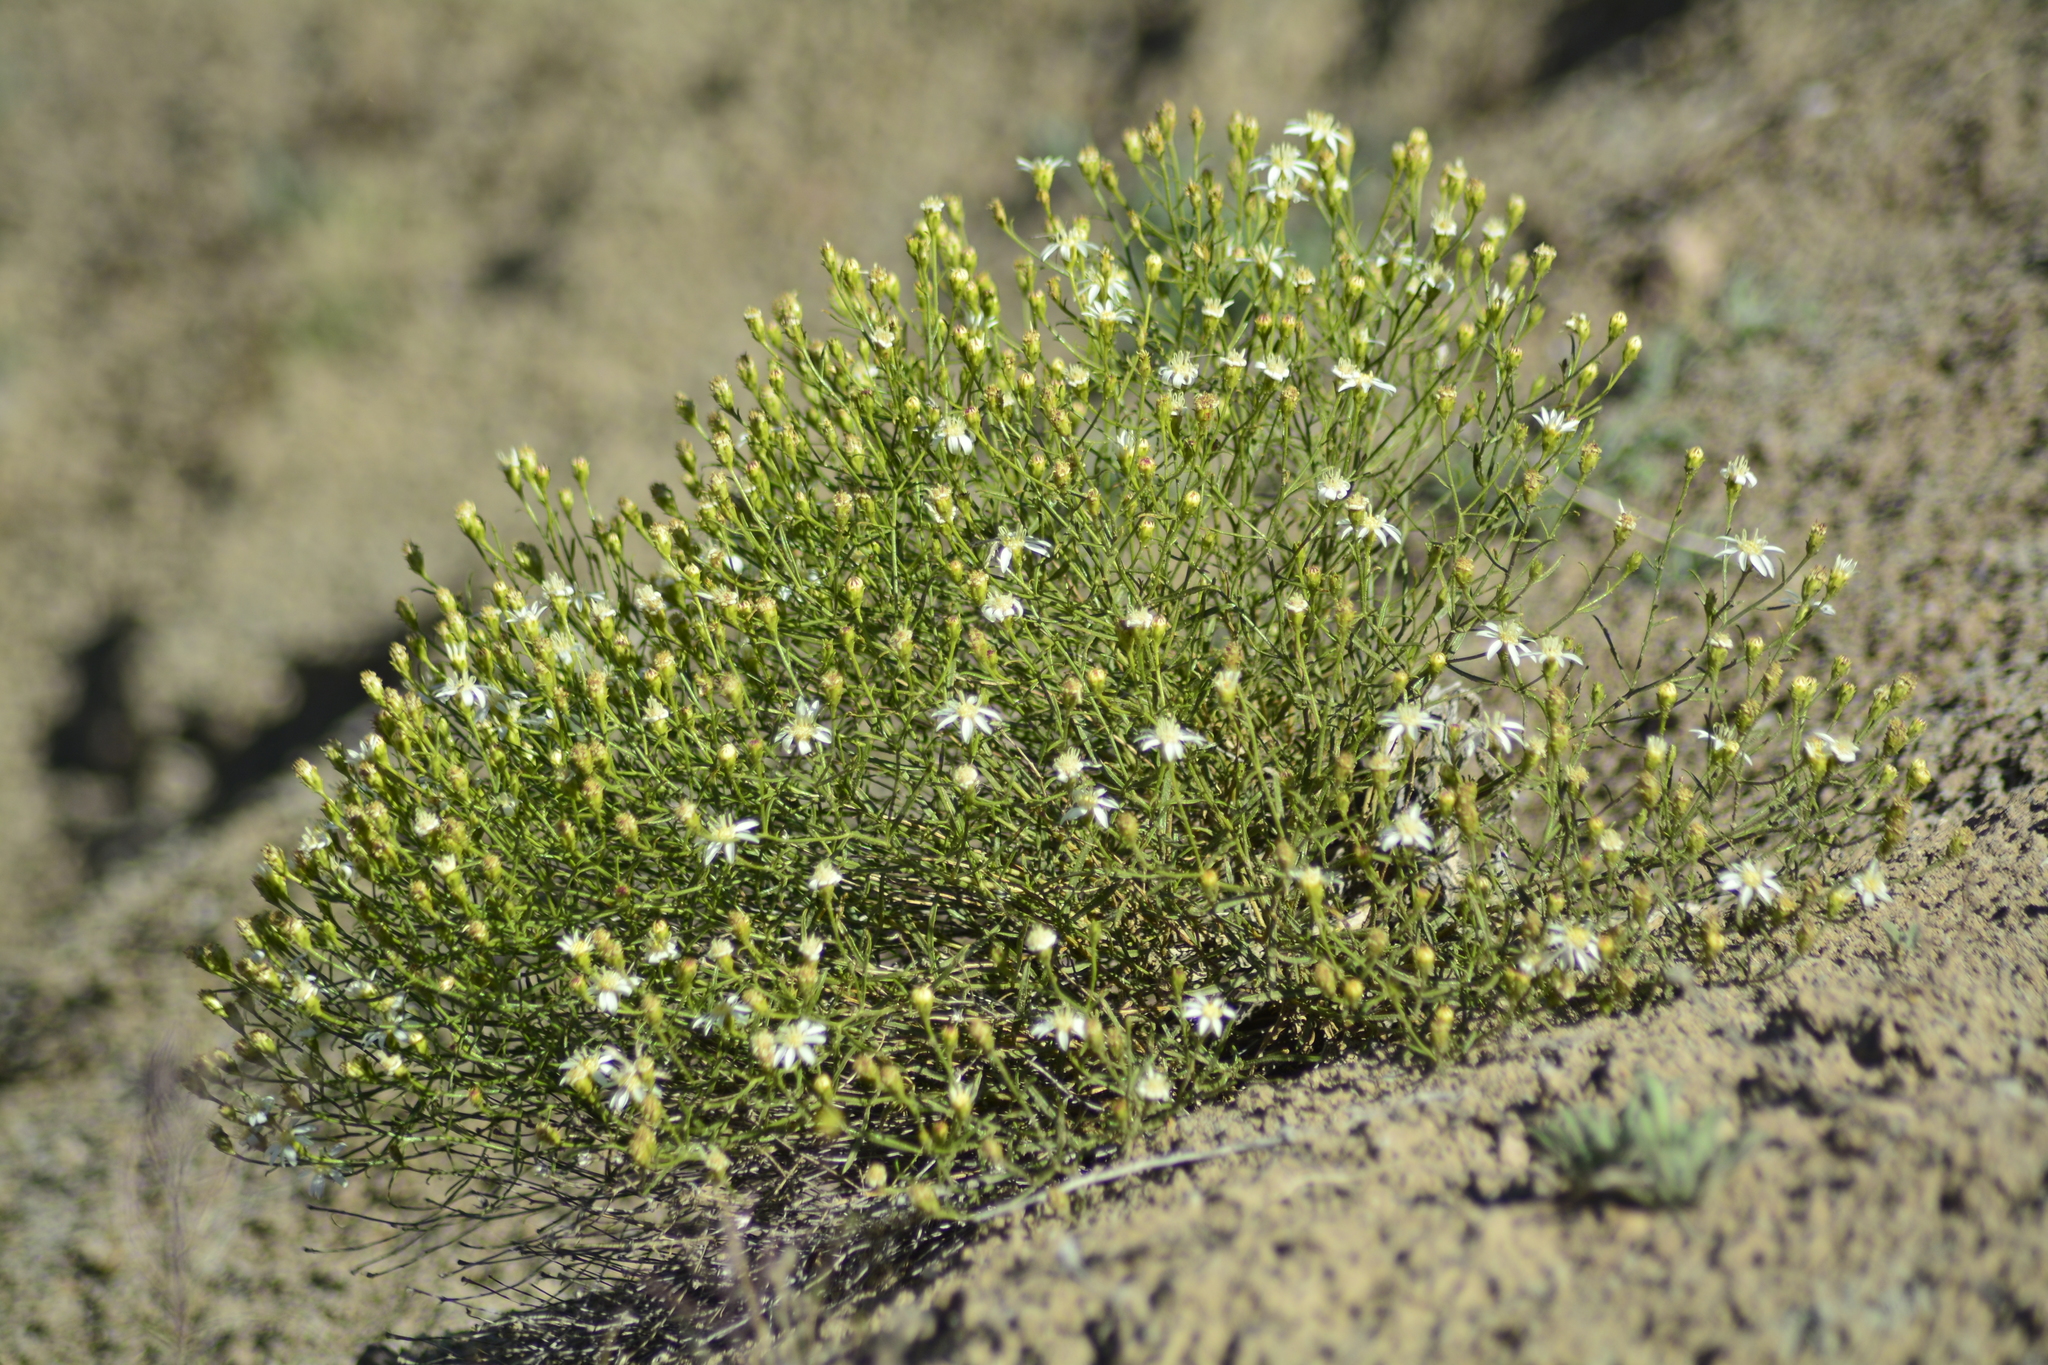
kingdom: Plantae
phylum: Tracheophyta
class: Magnoliopsida
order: Asterales
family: Asteraceae
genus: Gutierrezia
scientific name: Gutierrezia gilliesii
